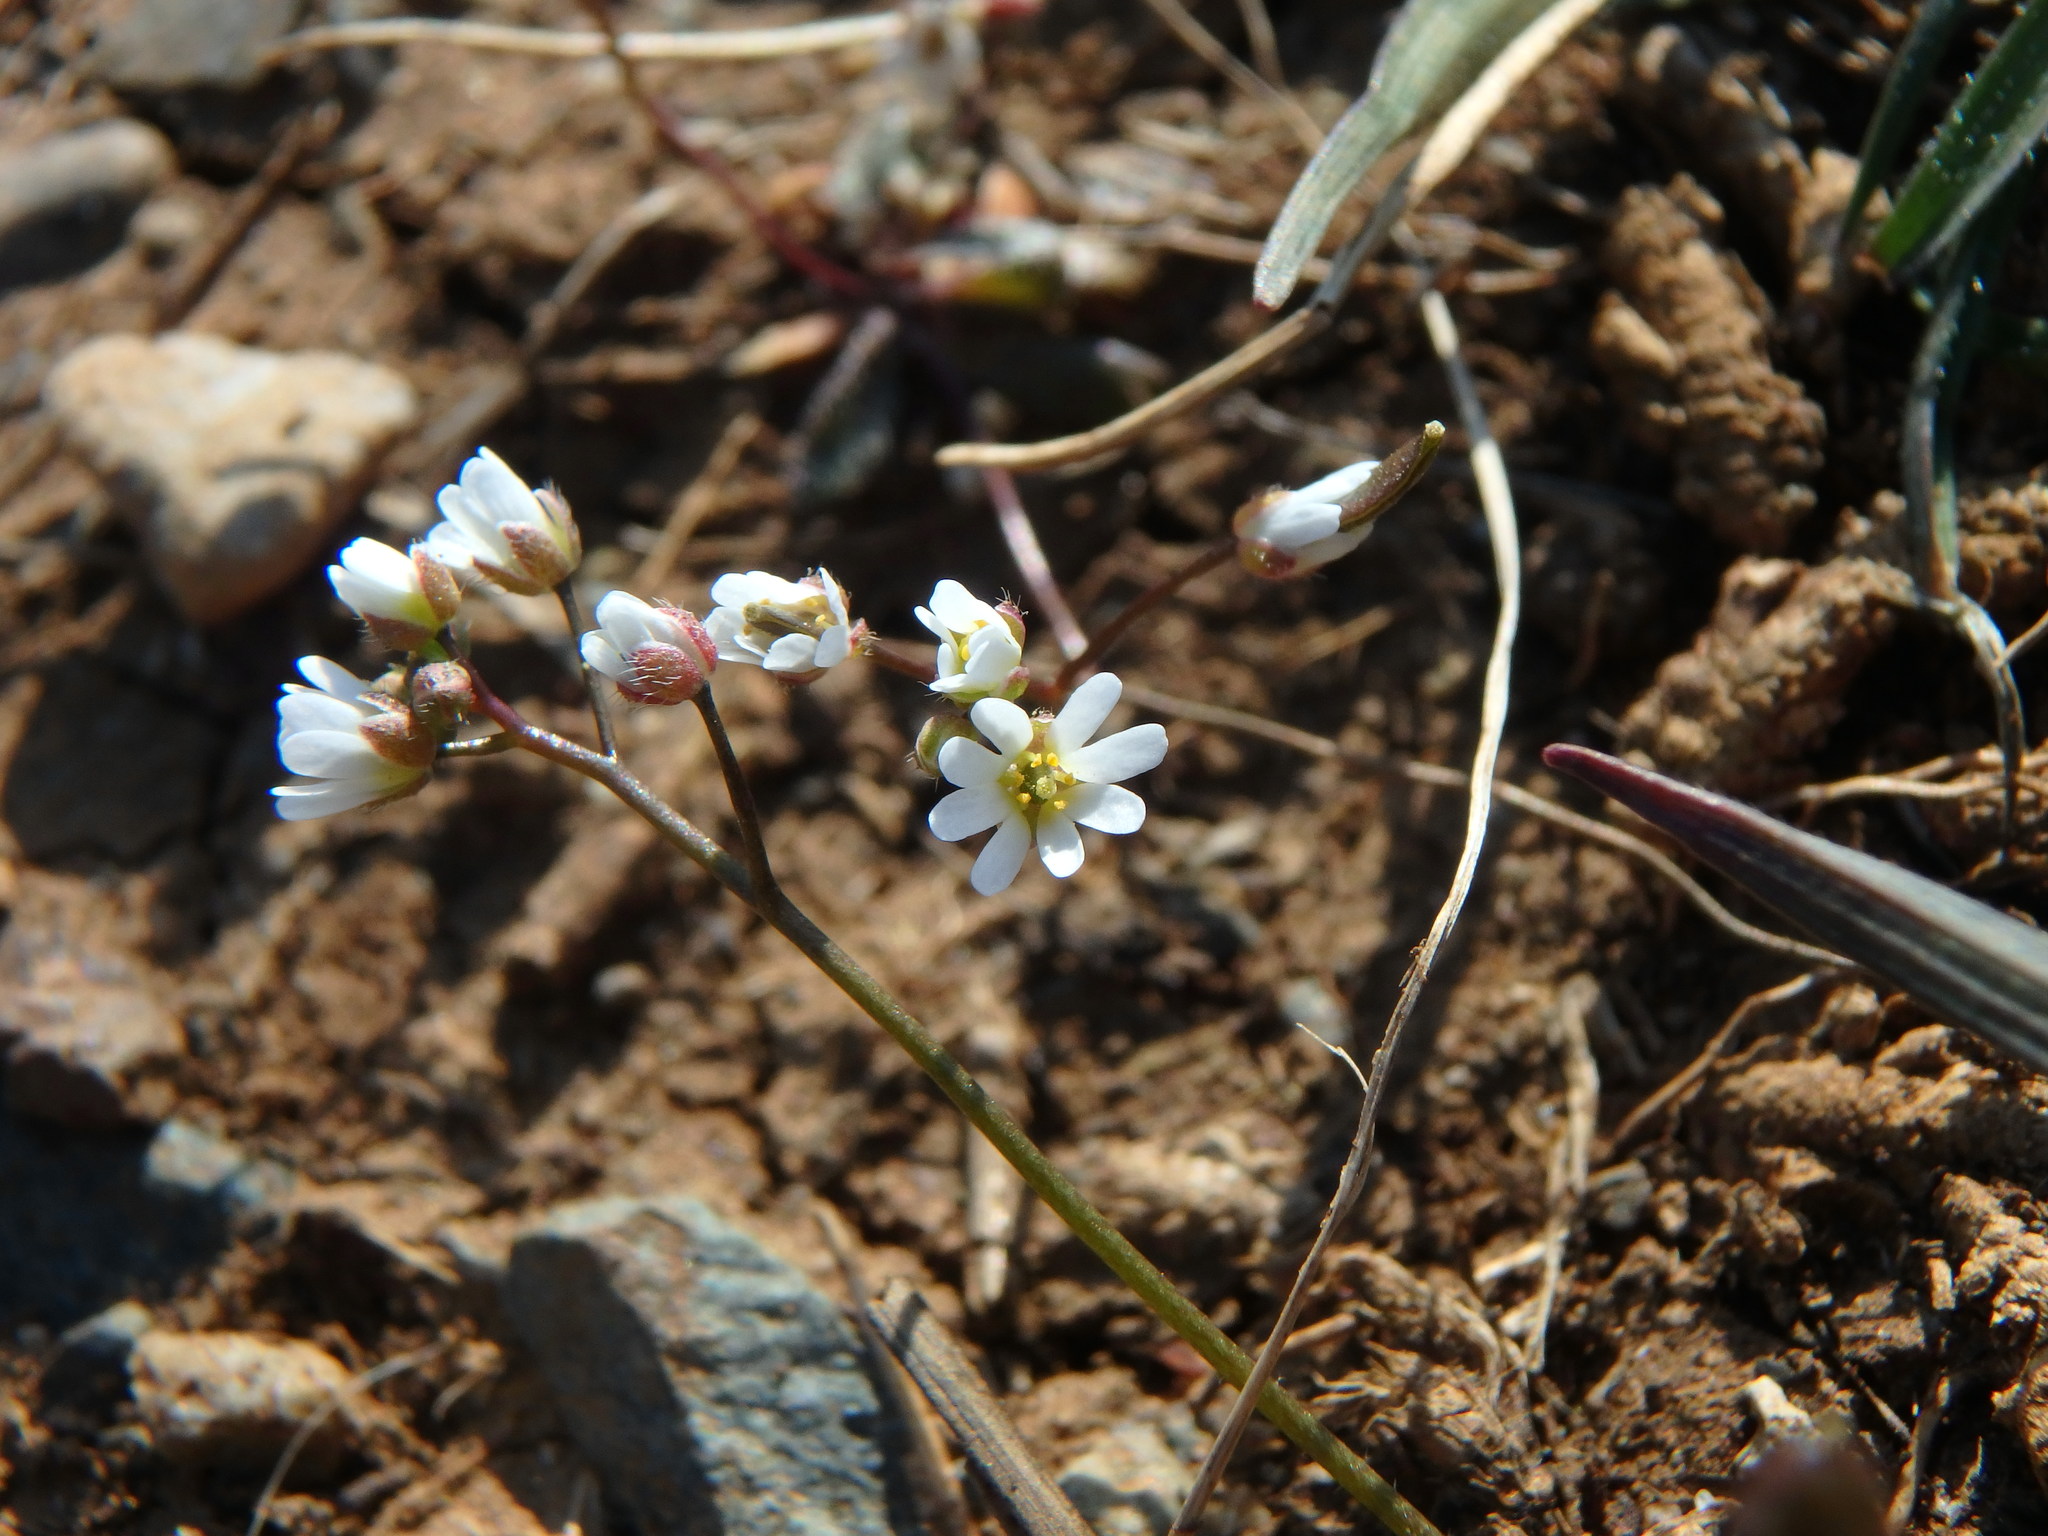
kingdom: Plantae
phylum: Tracheophyta
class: Magnoliopsida
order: Brassicales
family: Brassicaceae
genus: Draba
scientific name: Draba verna
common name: Spring draba
